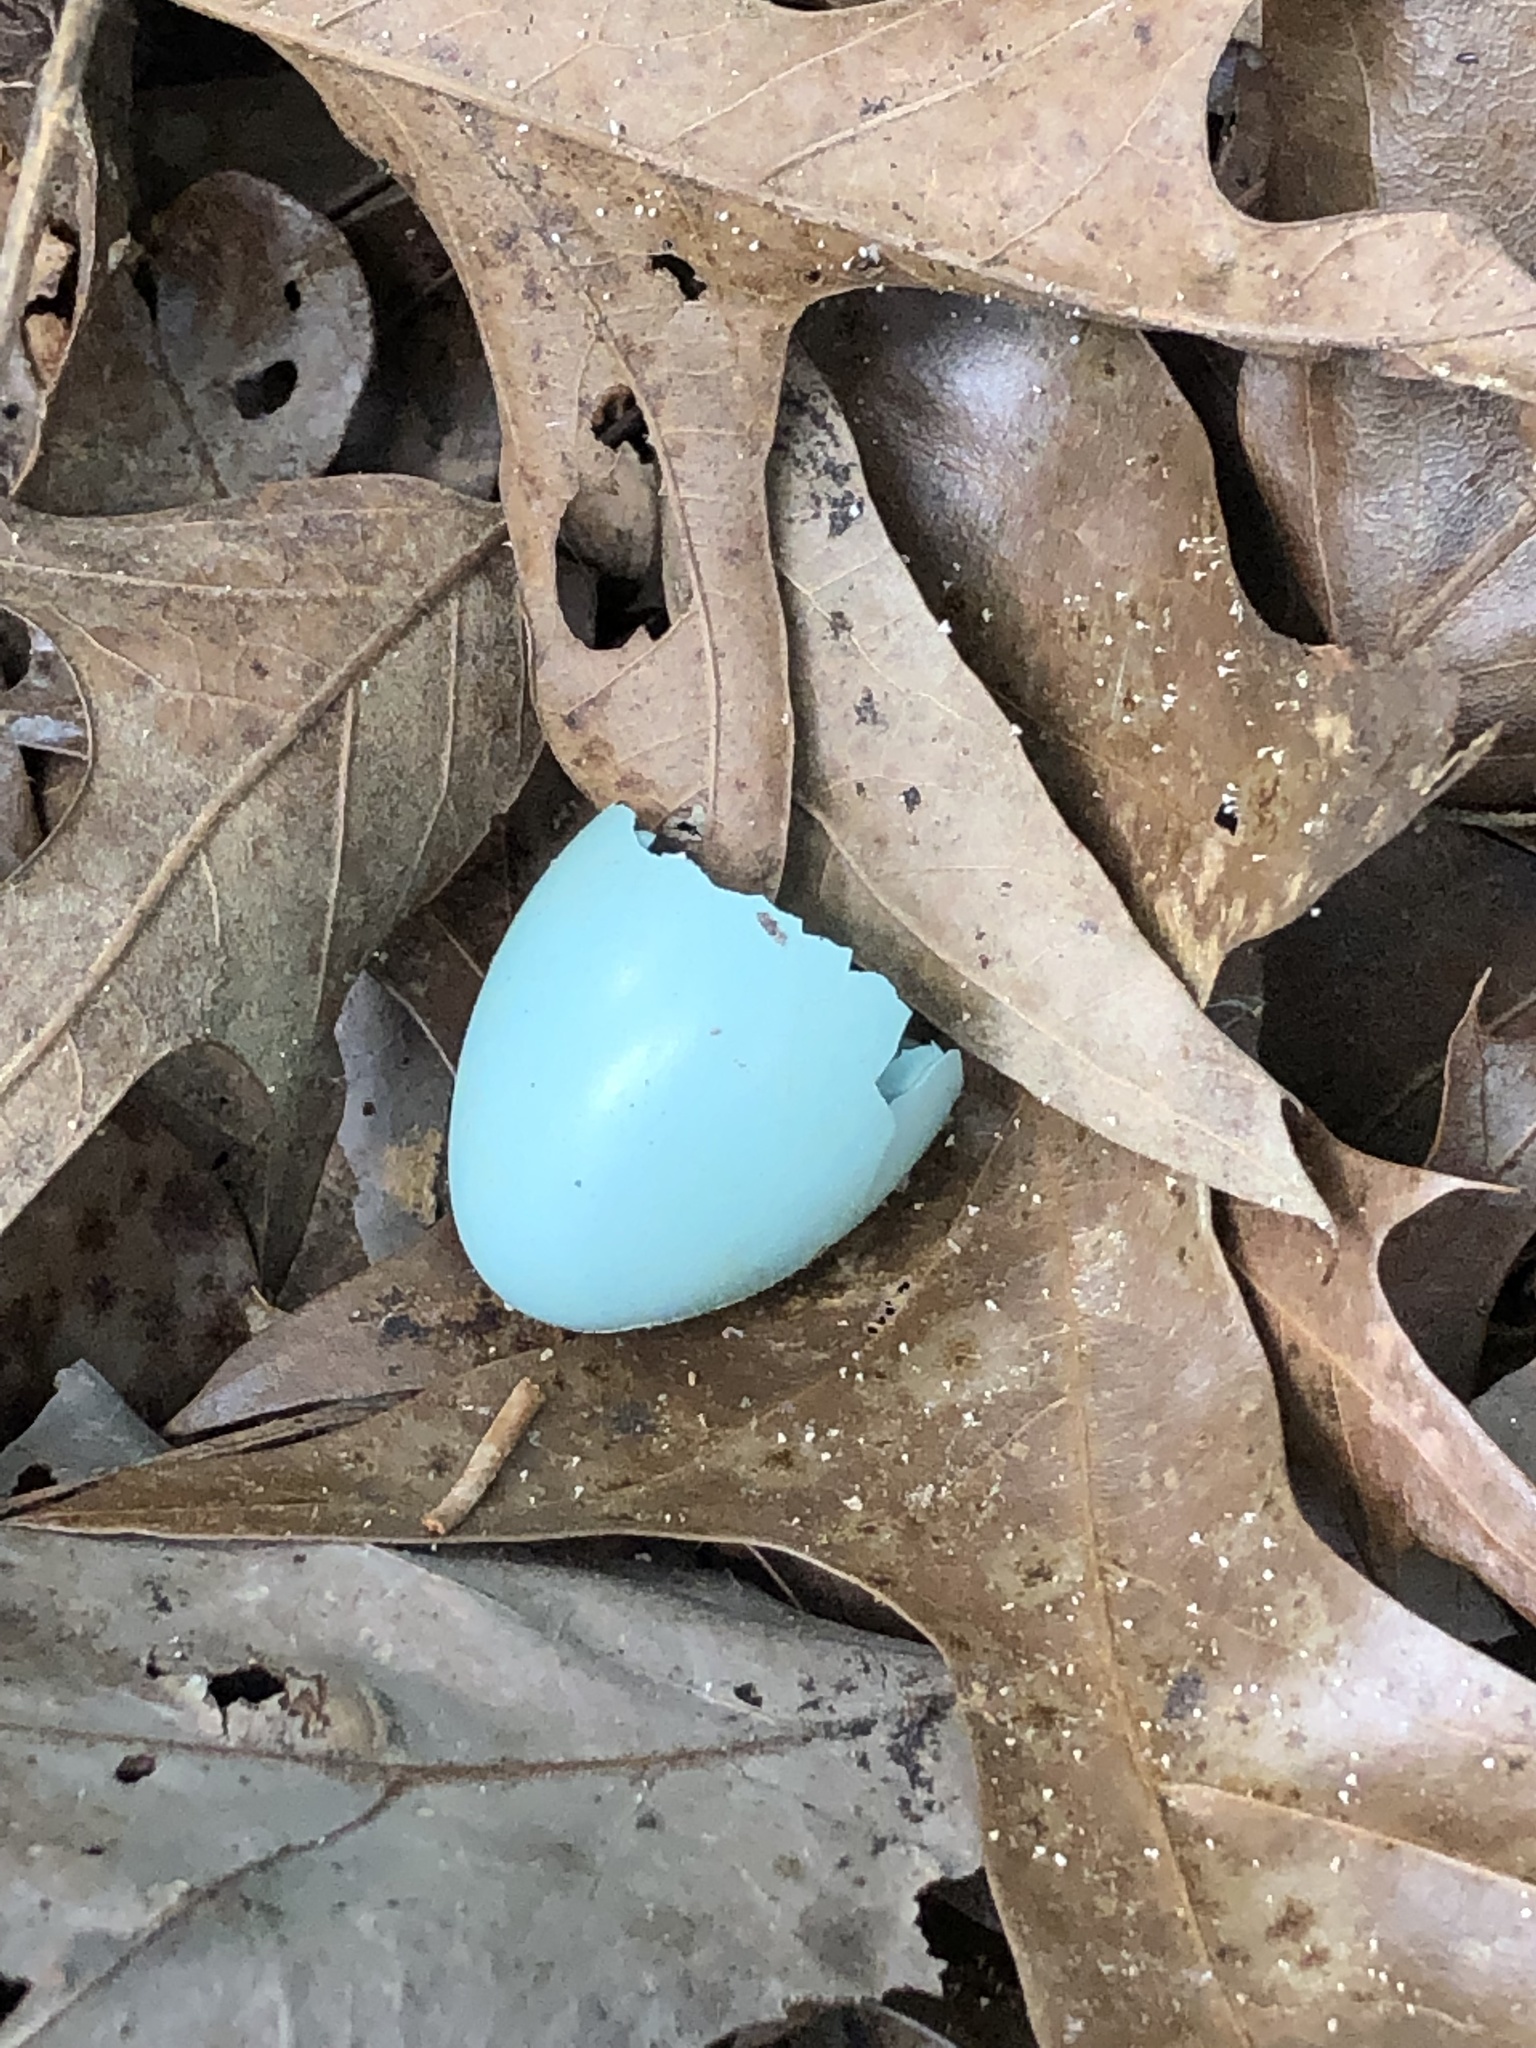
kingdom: Animalia
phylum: Chordata
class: Aves
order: Passeriformes
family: Turdidae
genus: Turdus
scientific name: Turdus migratorius
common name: American robin
